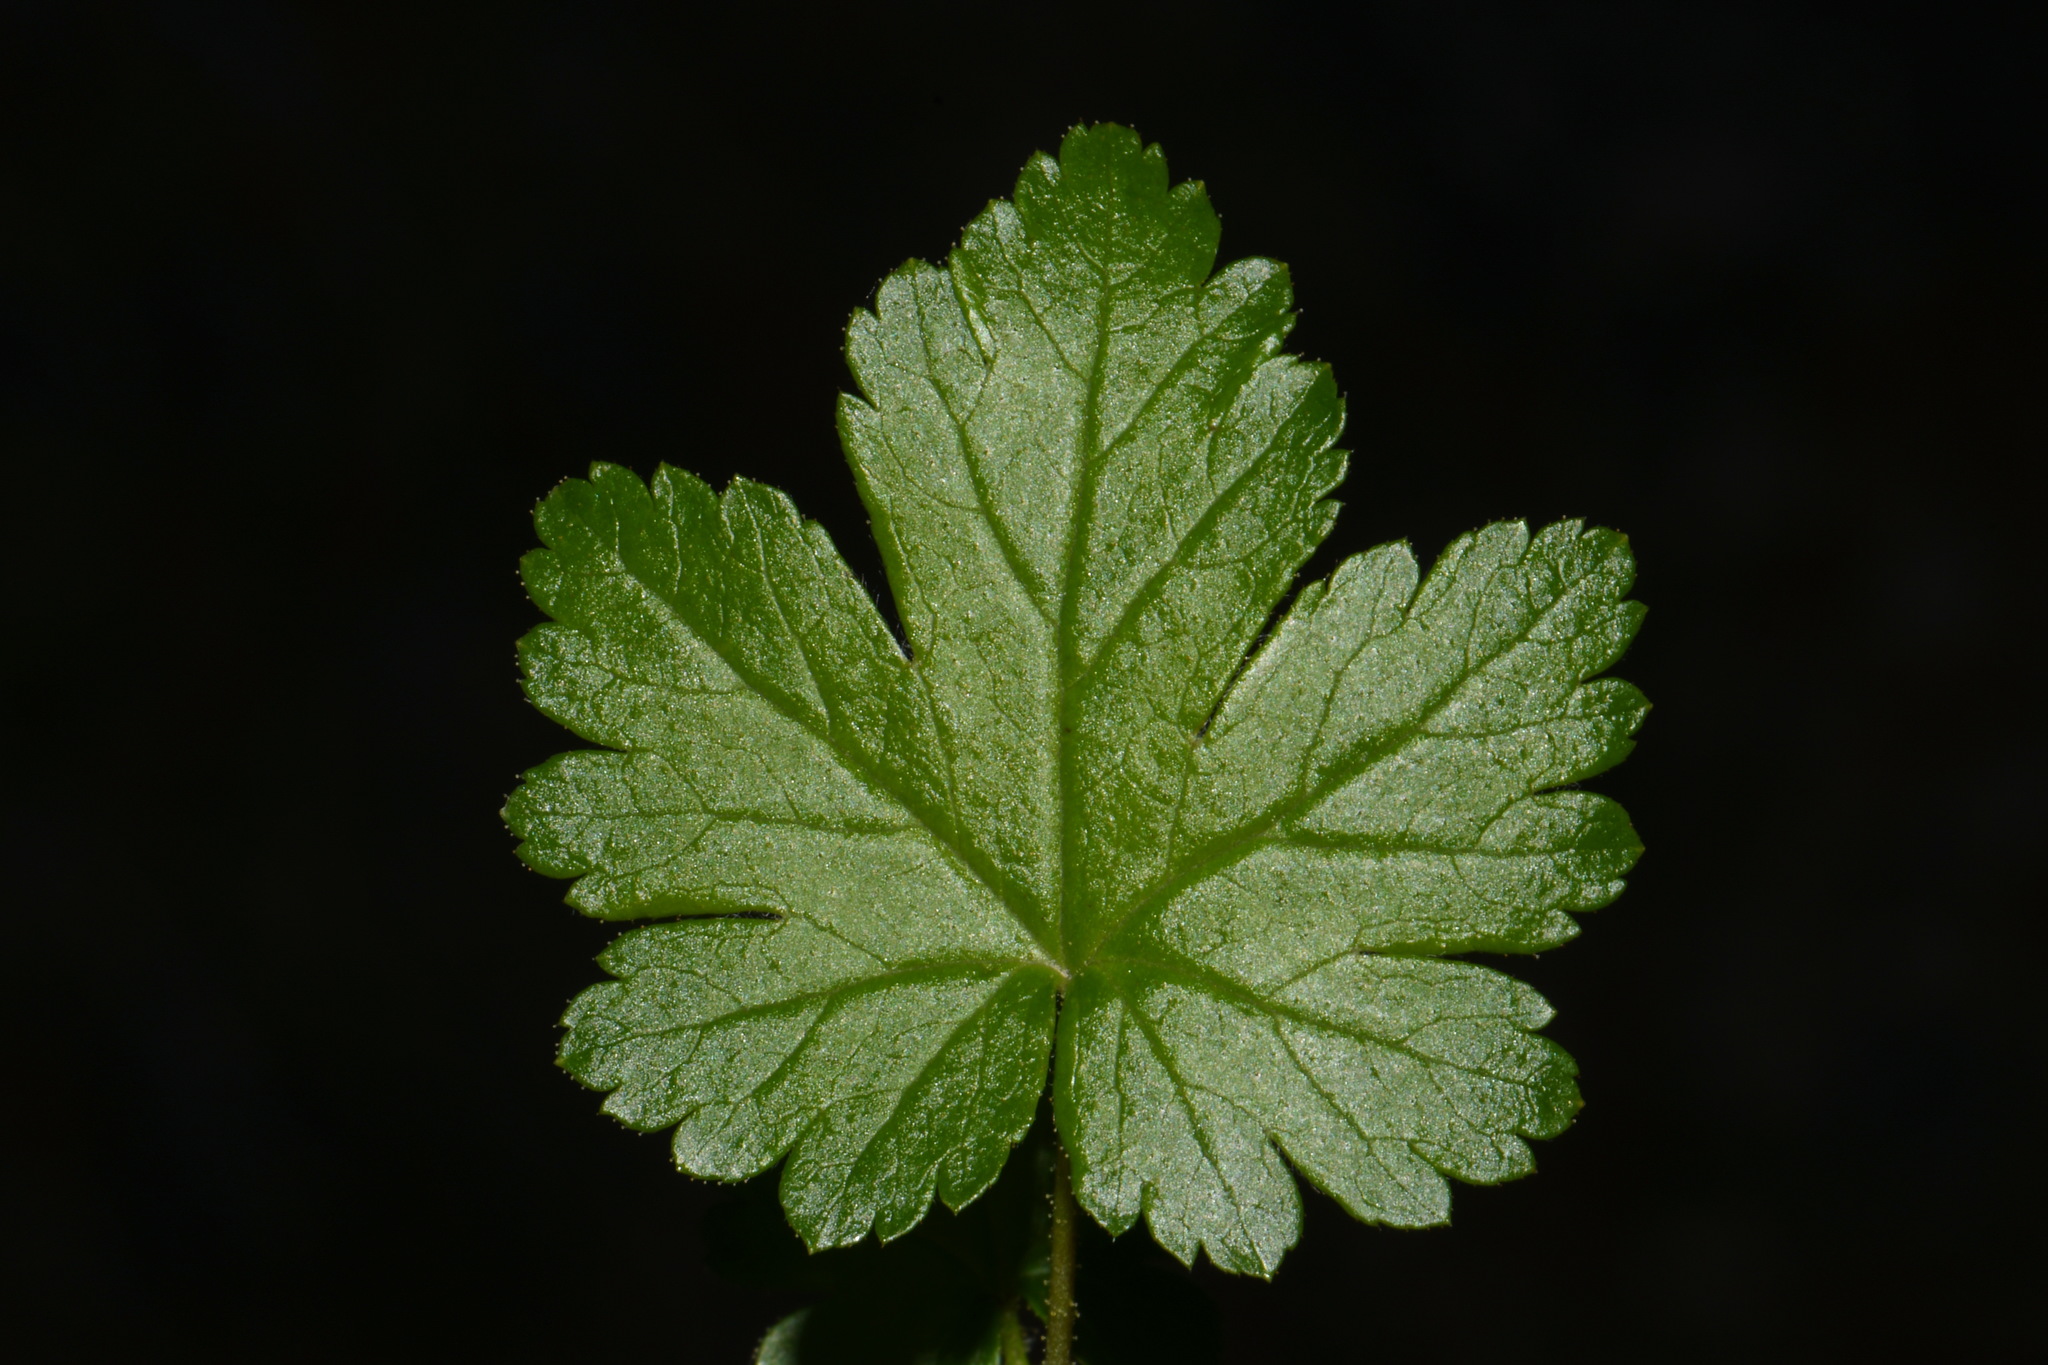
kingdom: Plantae
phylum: Tracheophyta
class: Magnoliopsida
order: Saxifragales
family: Grossulariaceae
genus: Ribes
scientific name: Ribes lacustre
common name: Black gooseberry
